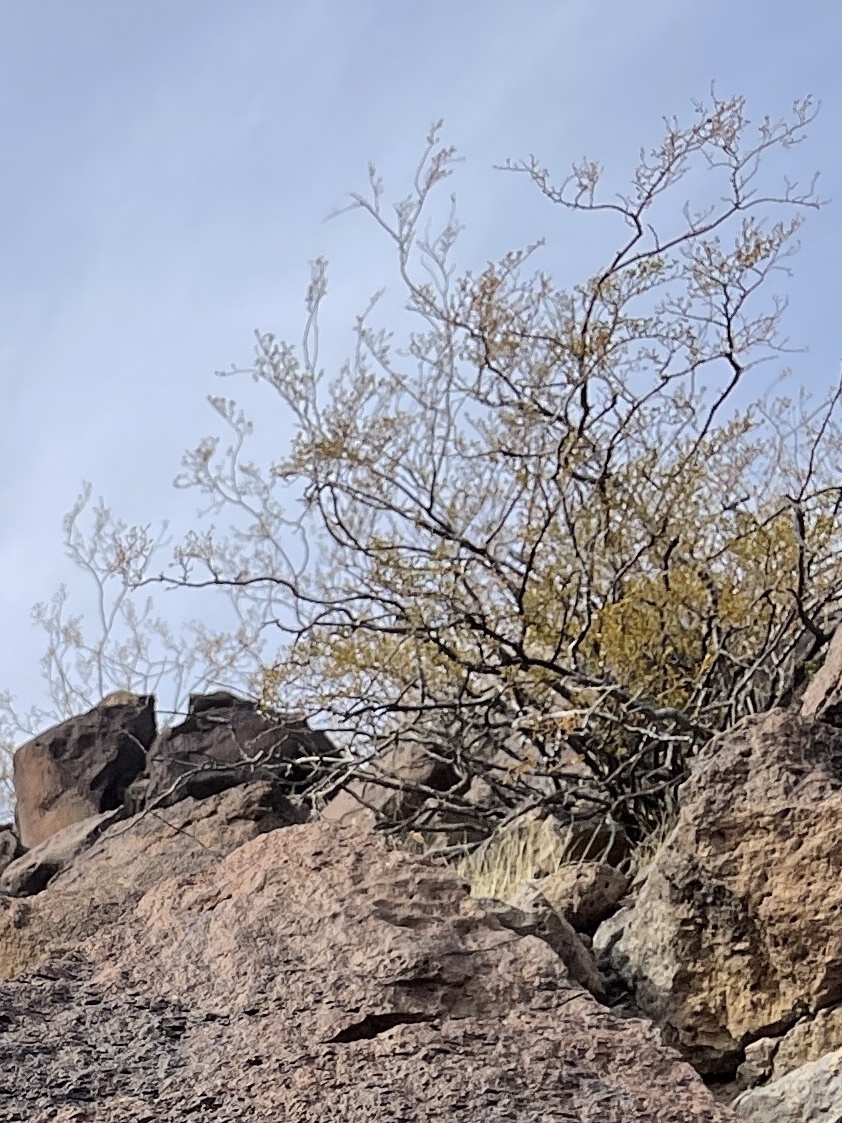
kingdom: Plantae
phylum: Tracheophyta
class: Magnoliopsida
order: Zygophyllales
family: Zygophyllaceae
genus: Larrea
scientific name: Larrea tridentata
